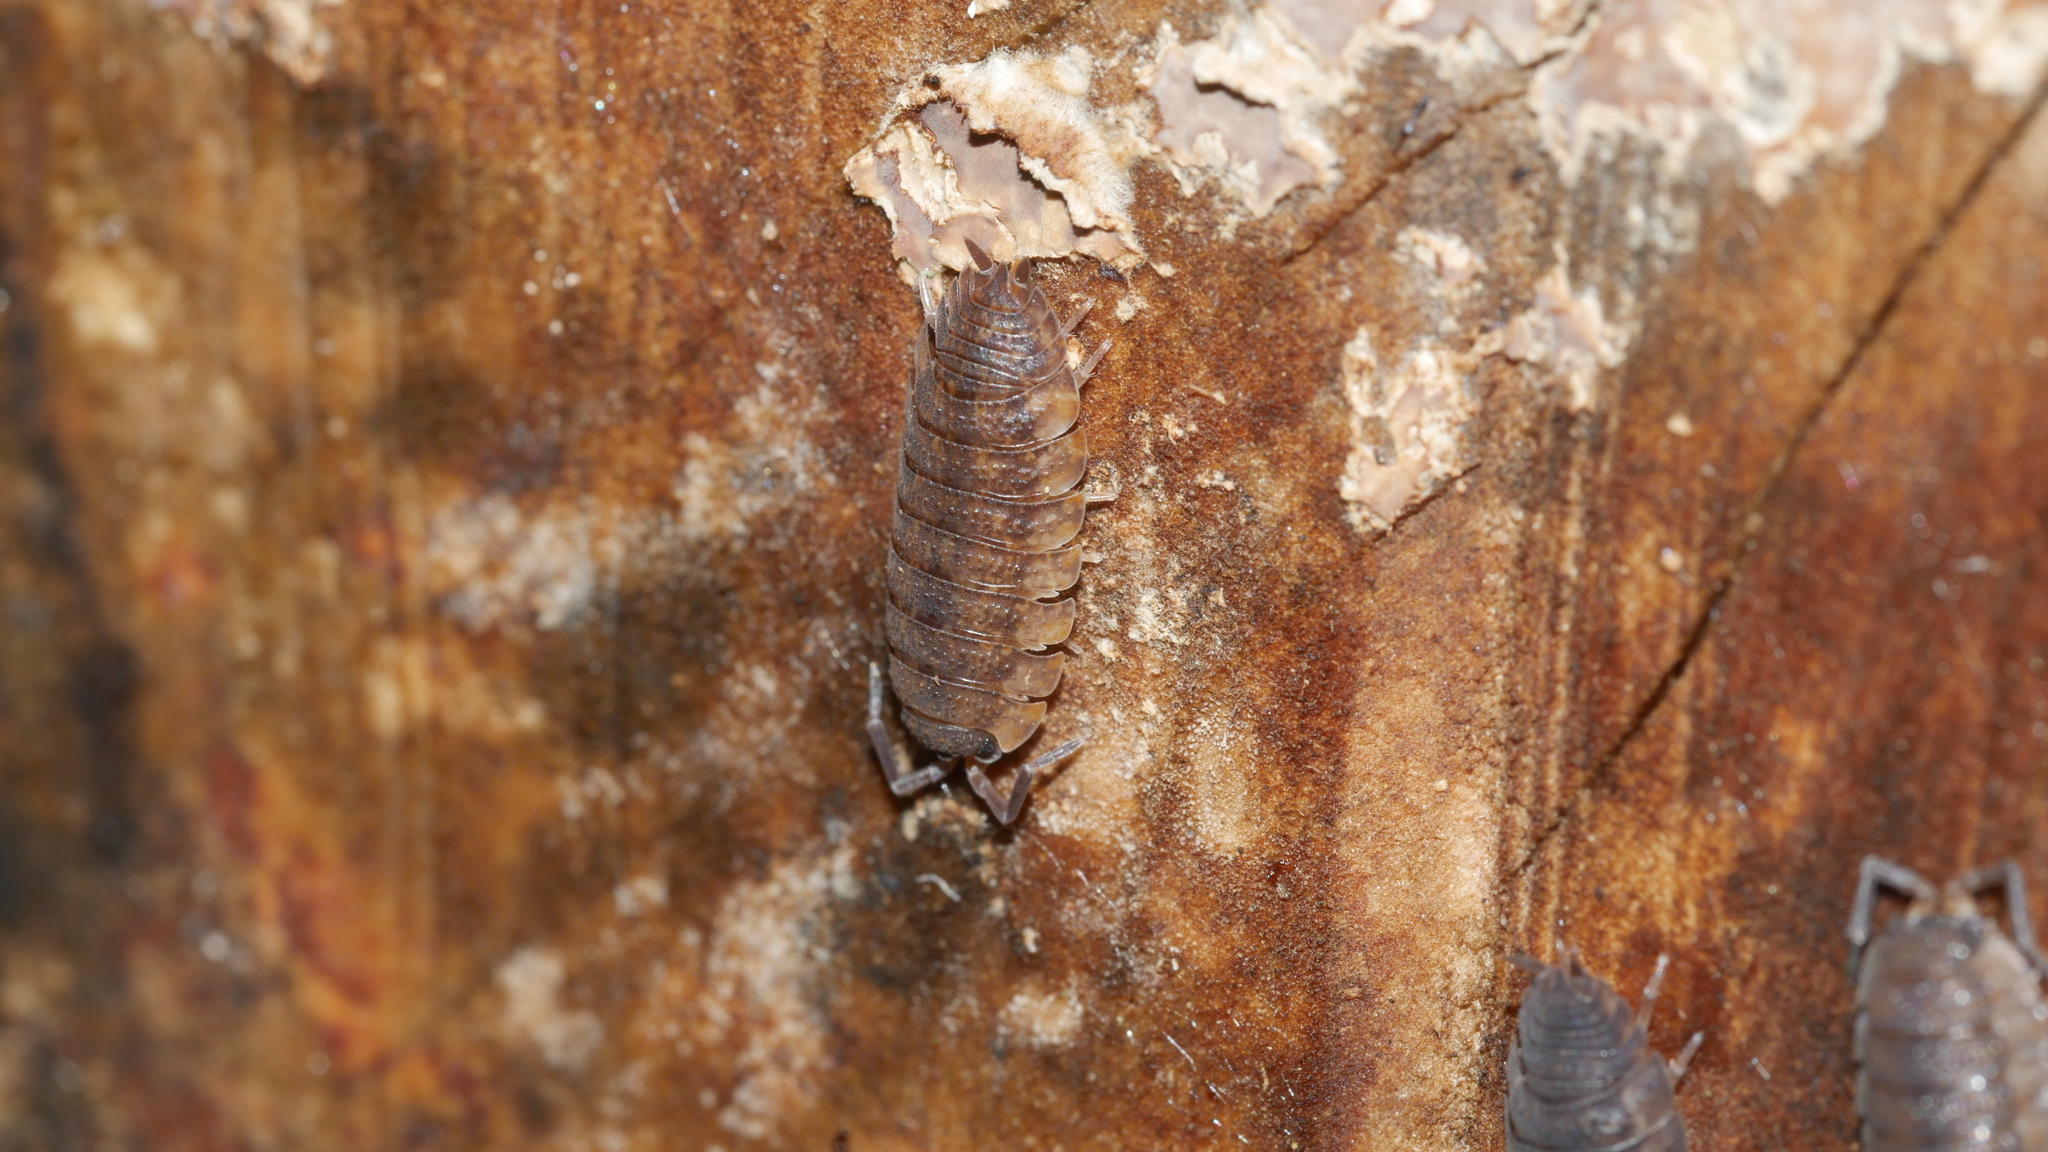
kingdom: Animalia
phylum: Arthropoda
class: Malacostraca
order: Isopoda
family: Porcellionidae
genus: Porcellio
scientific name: Porcellio scaber
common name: Common rough woodlouse
